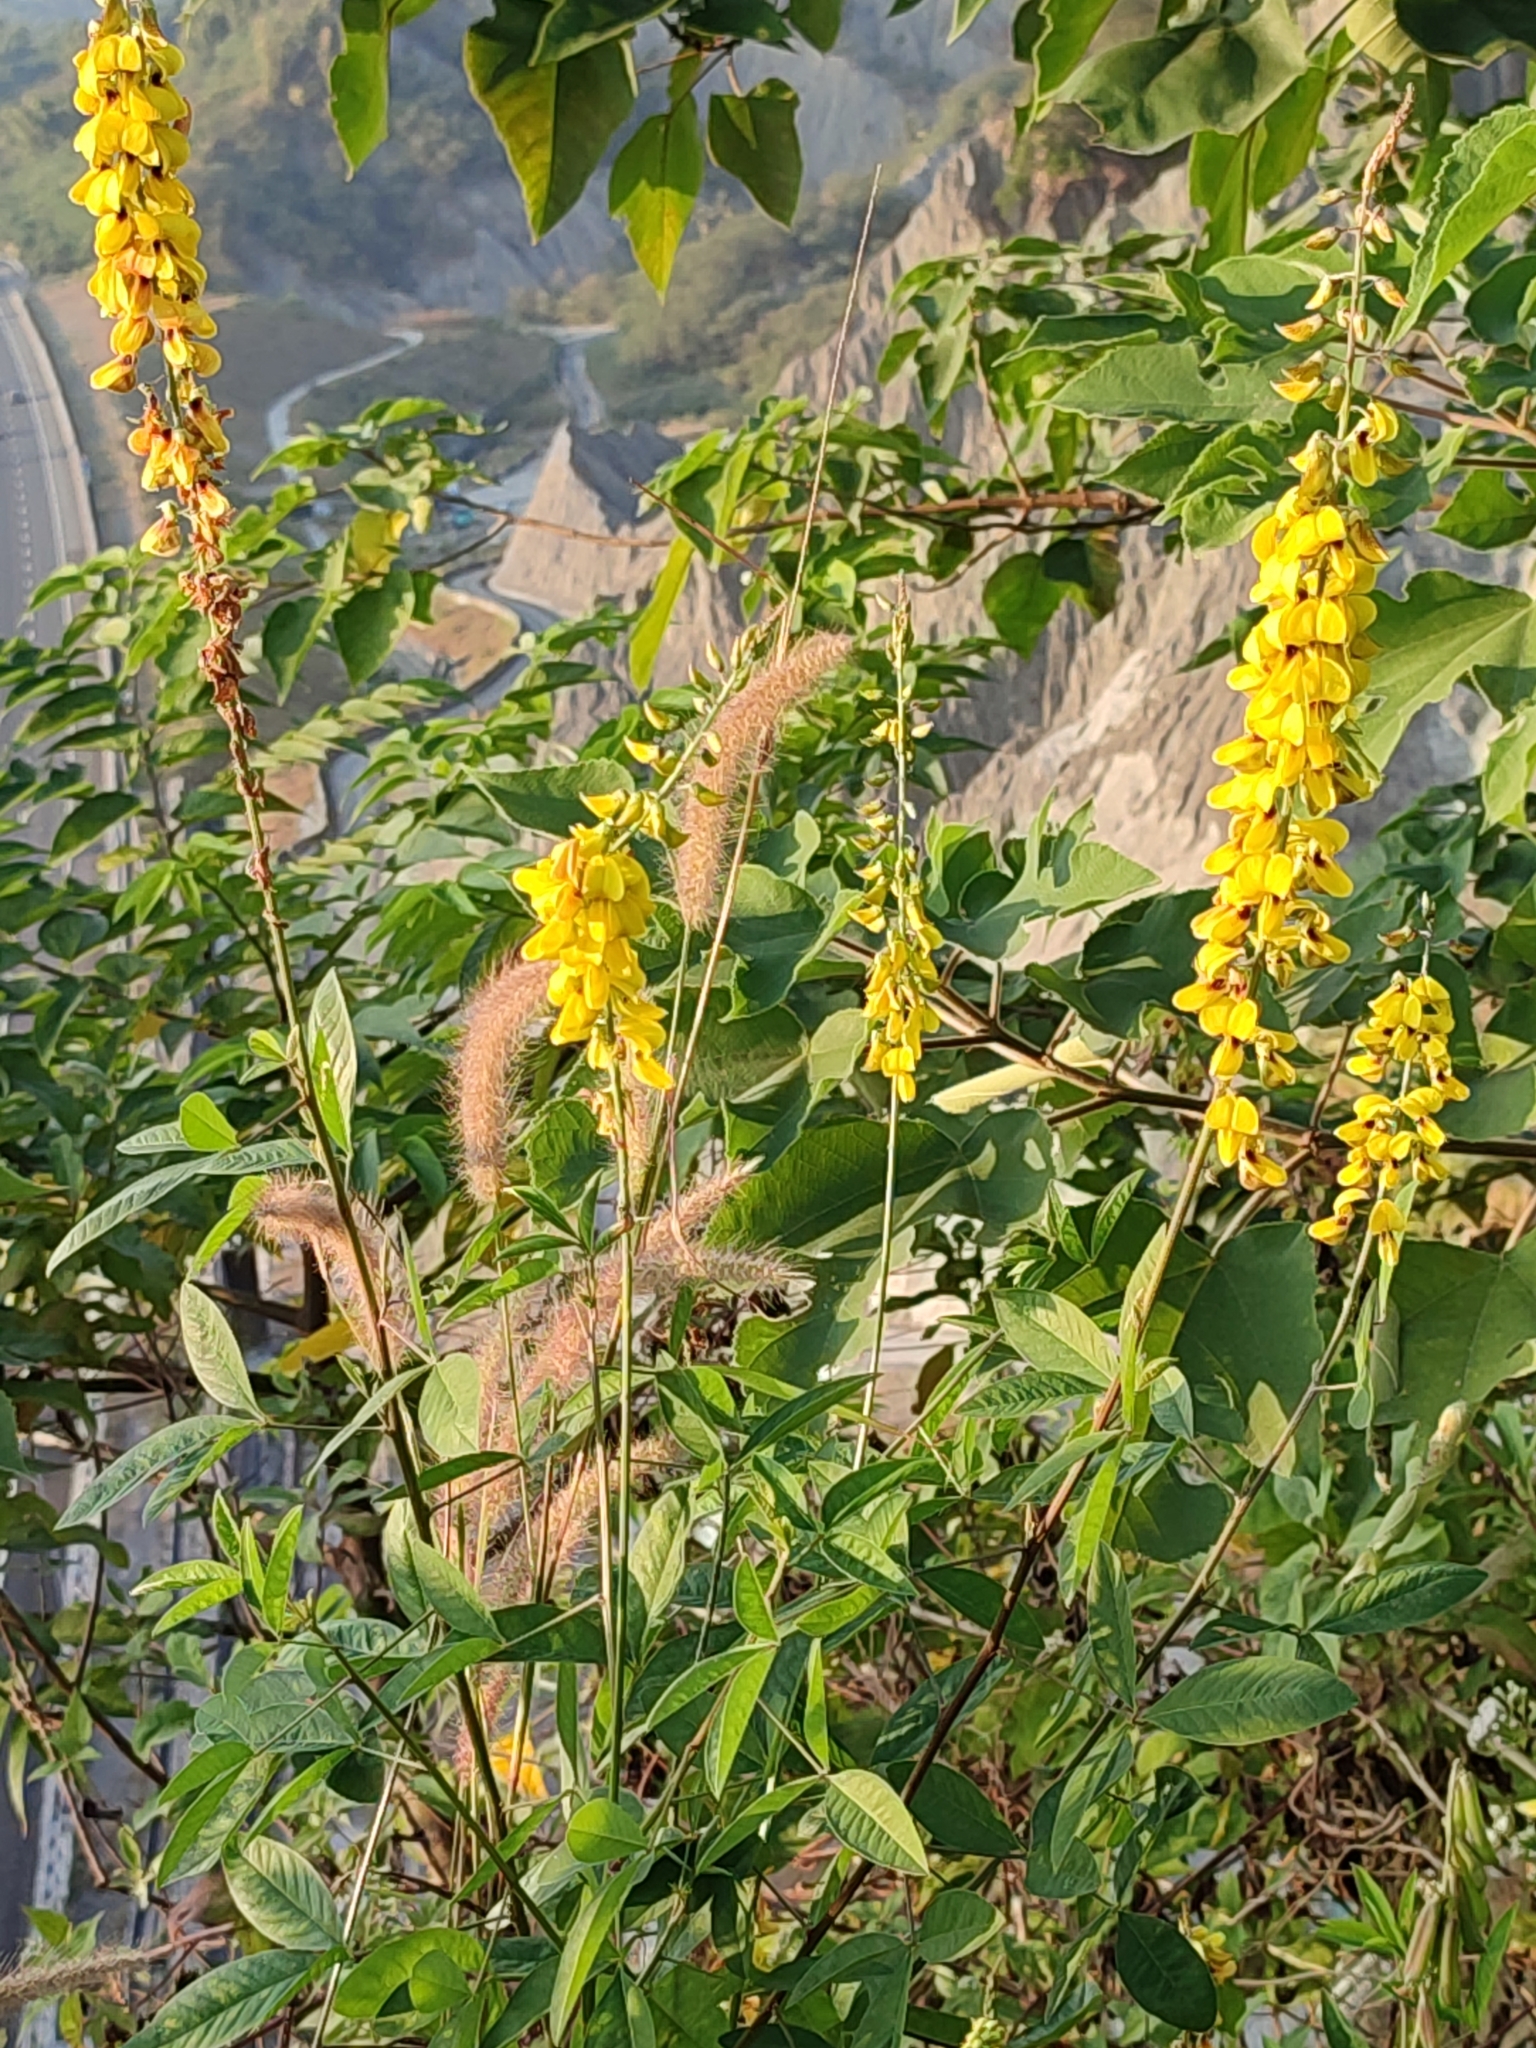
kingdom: Plantae
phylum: Tracheophyta
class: Magnoliopsida
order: Fabales
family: Fabaceae
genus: Crotalaria
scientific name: Crotalaria pallida
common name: Smooth rattlebox
